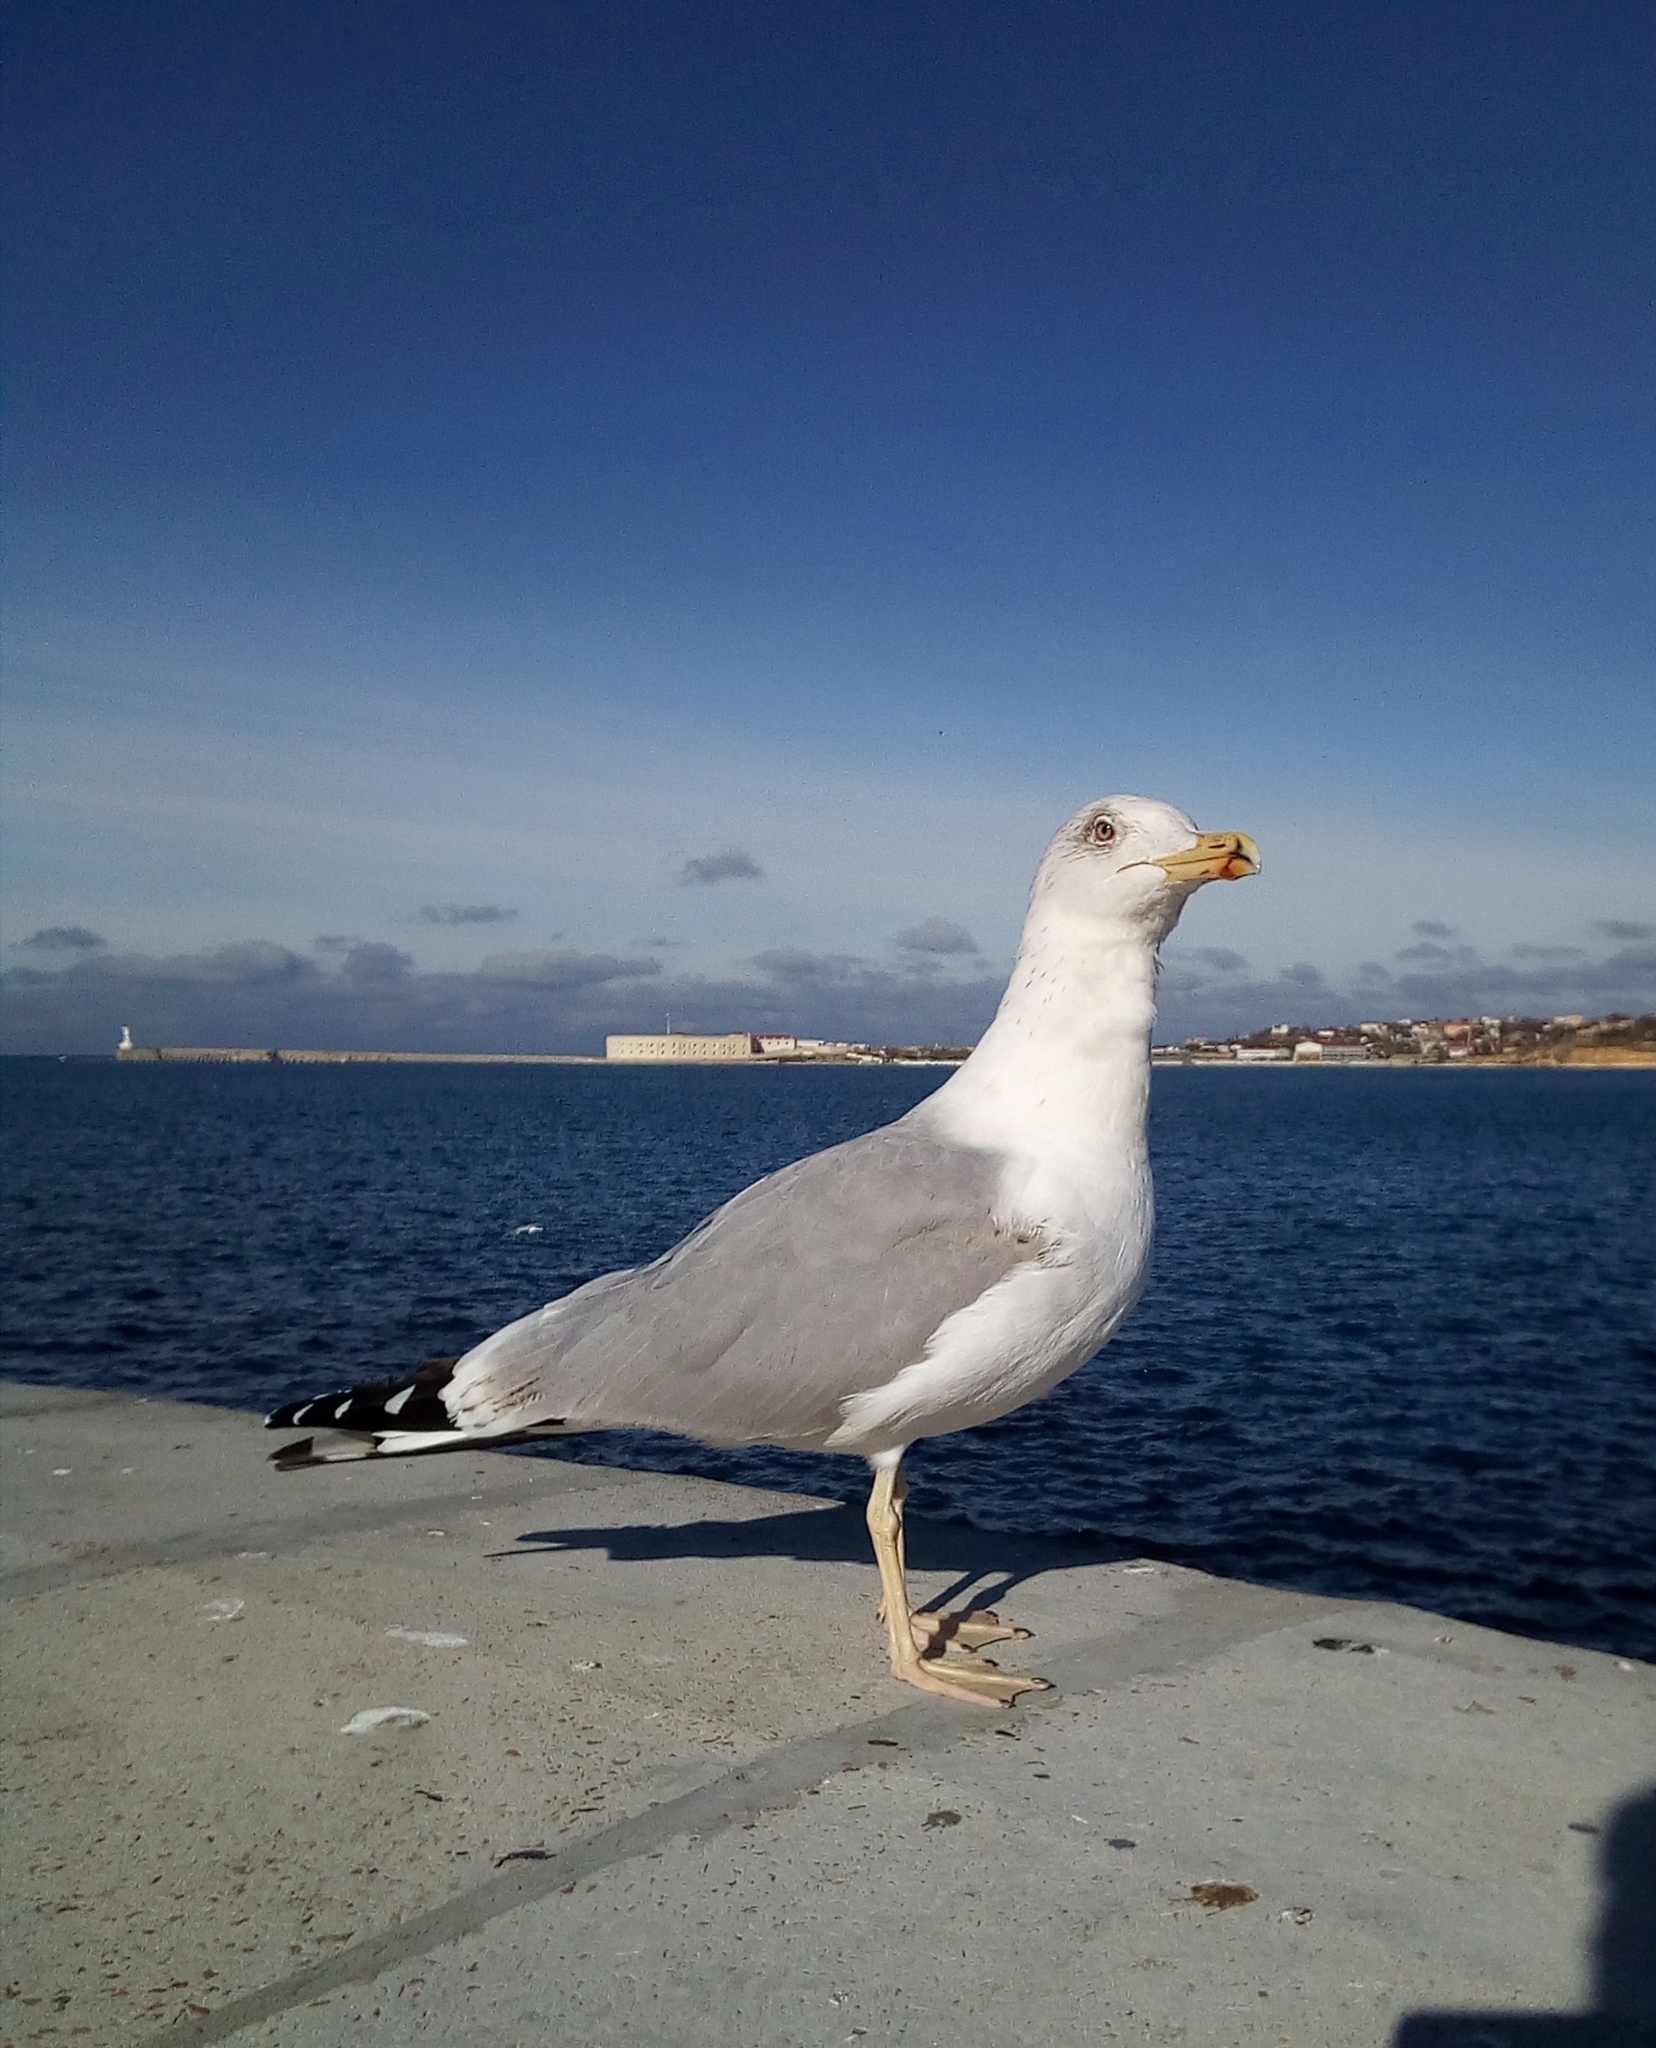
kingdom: Animalia
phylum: Chordata
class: Aves
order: Charadriiformes
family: Laridae
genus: Larus
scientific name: Larus michahellis
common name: Yellow-legged gull
